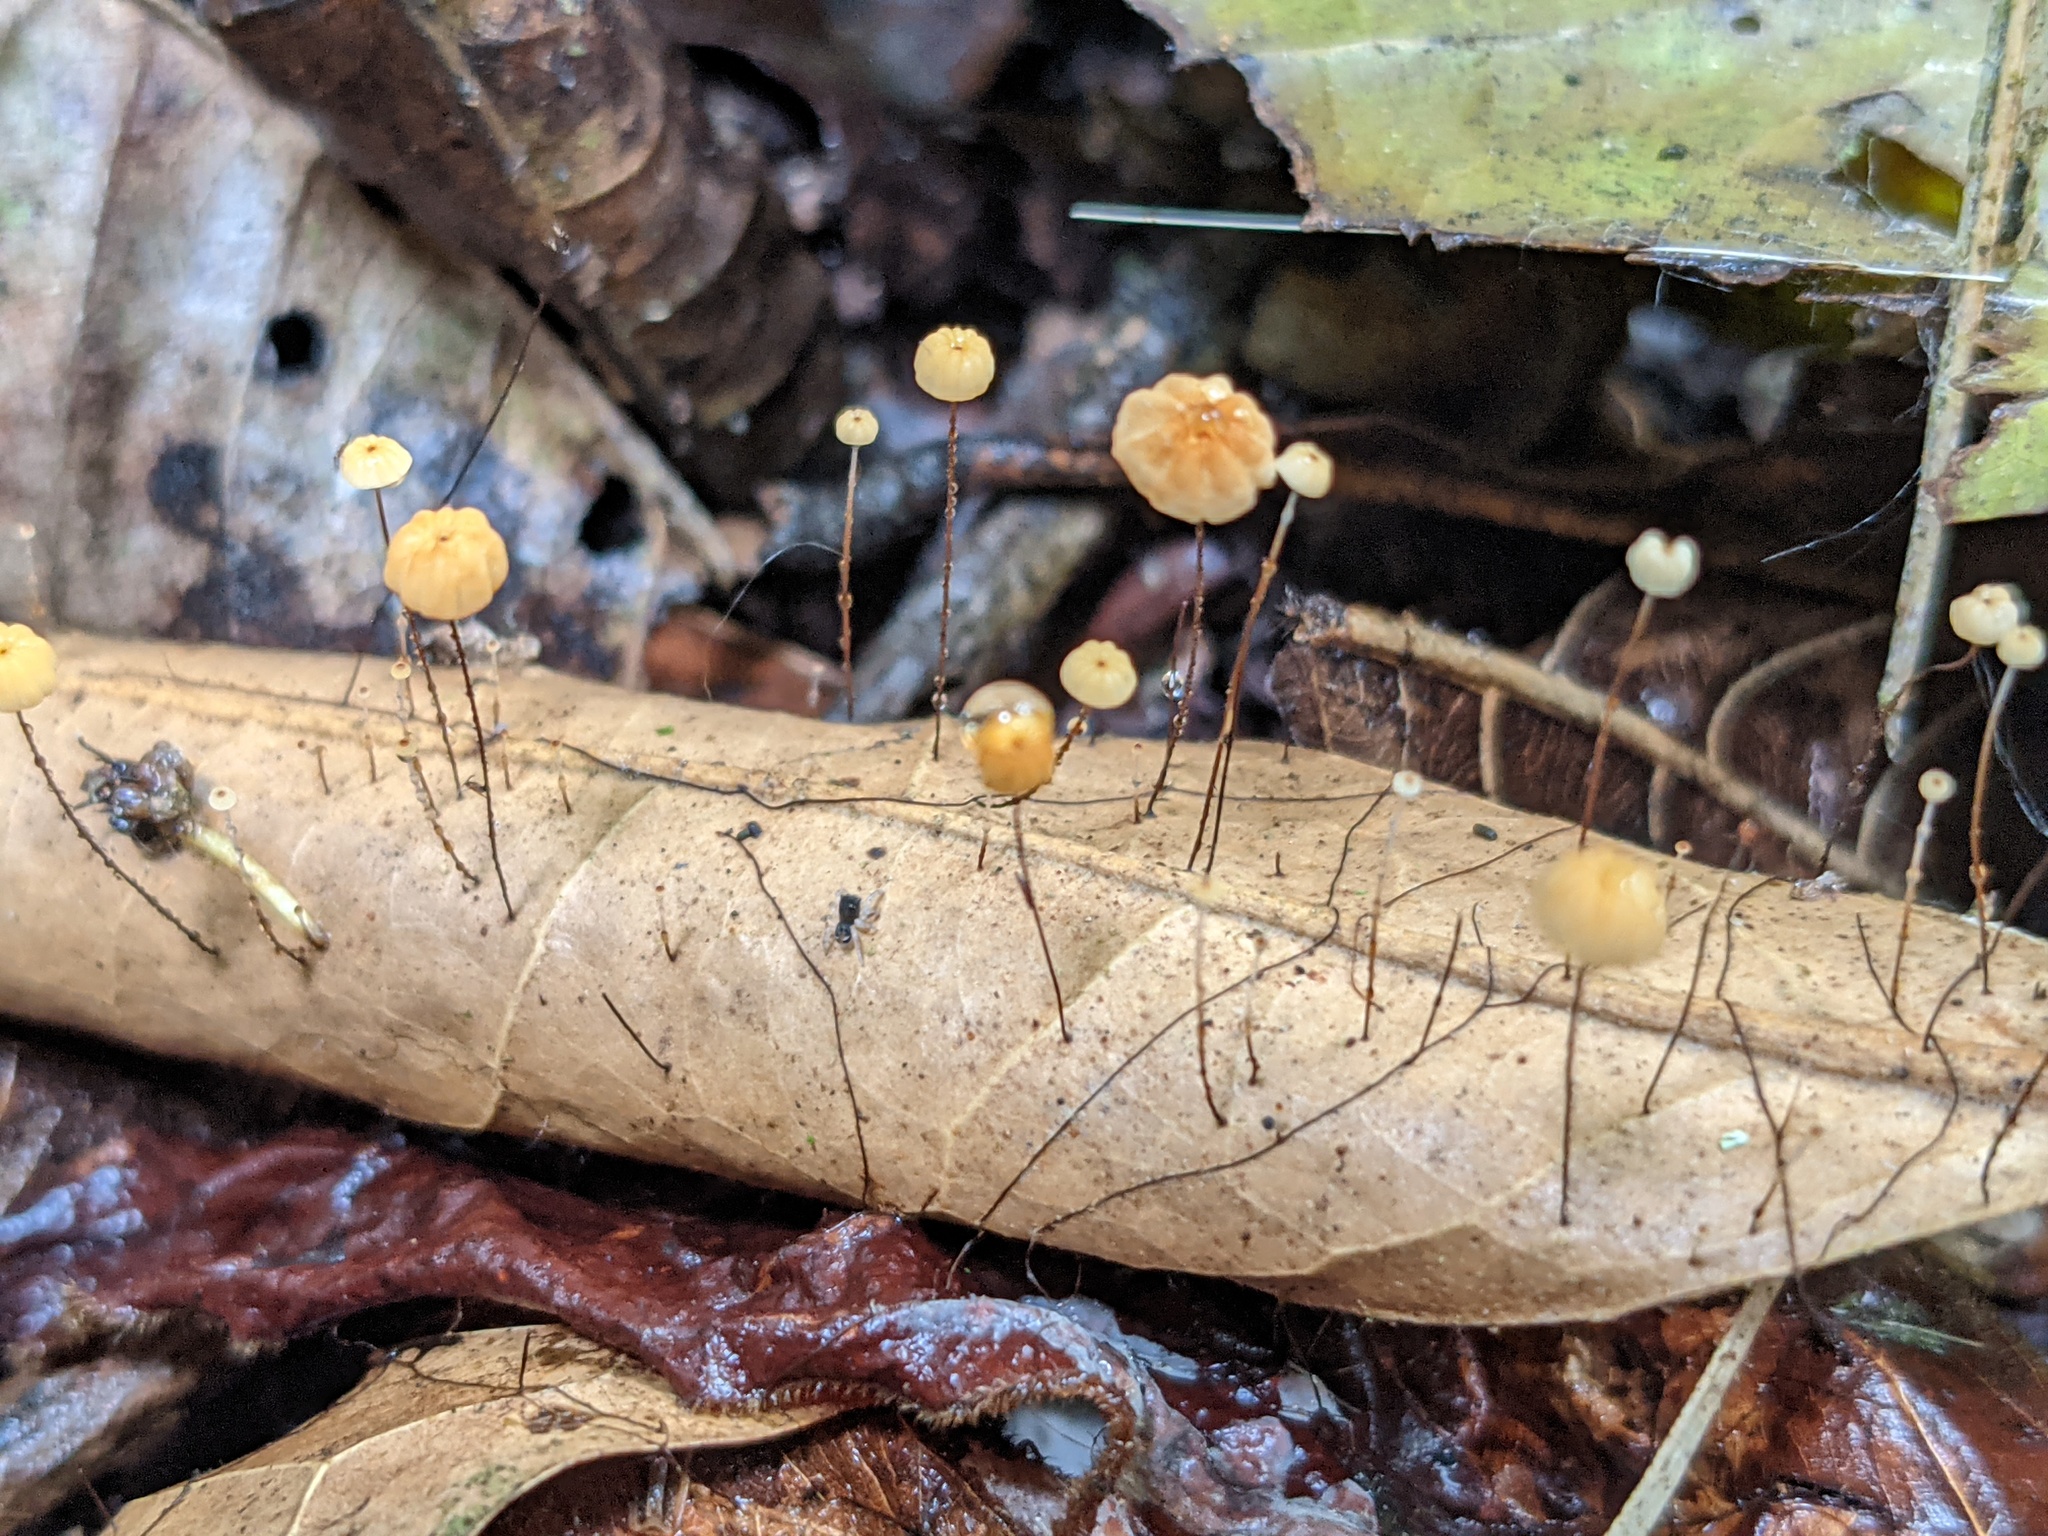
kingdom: Fungi
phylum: Basidiomycota
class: Agaricomycetes
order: Agaricales
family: Marasmiaceae
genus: Marasmius
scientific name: Marasmius bulliardii
